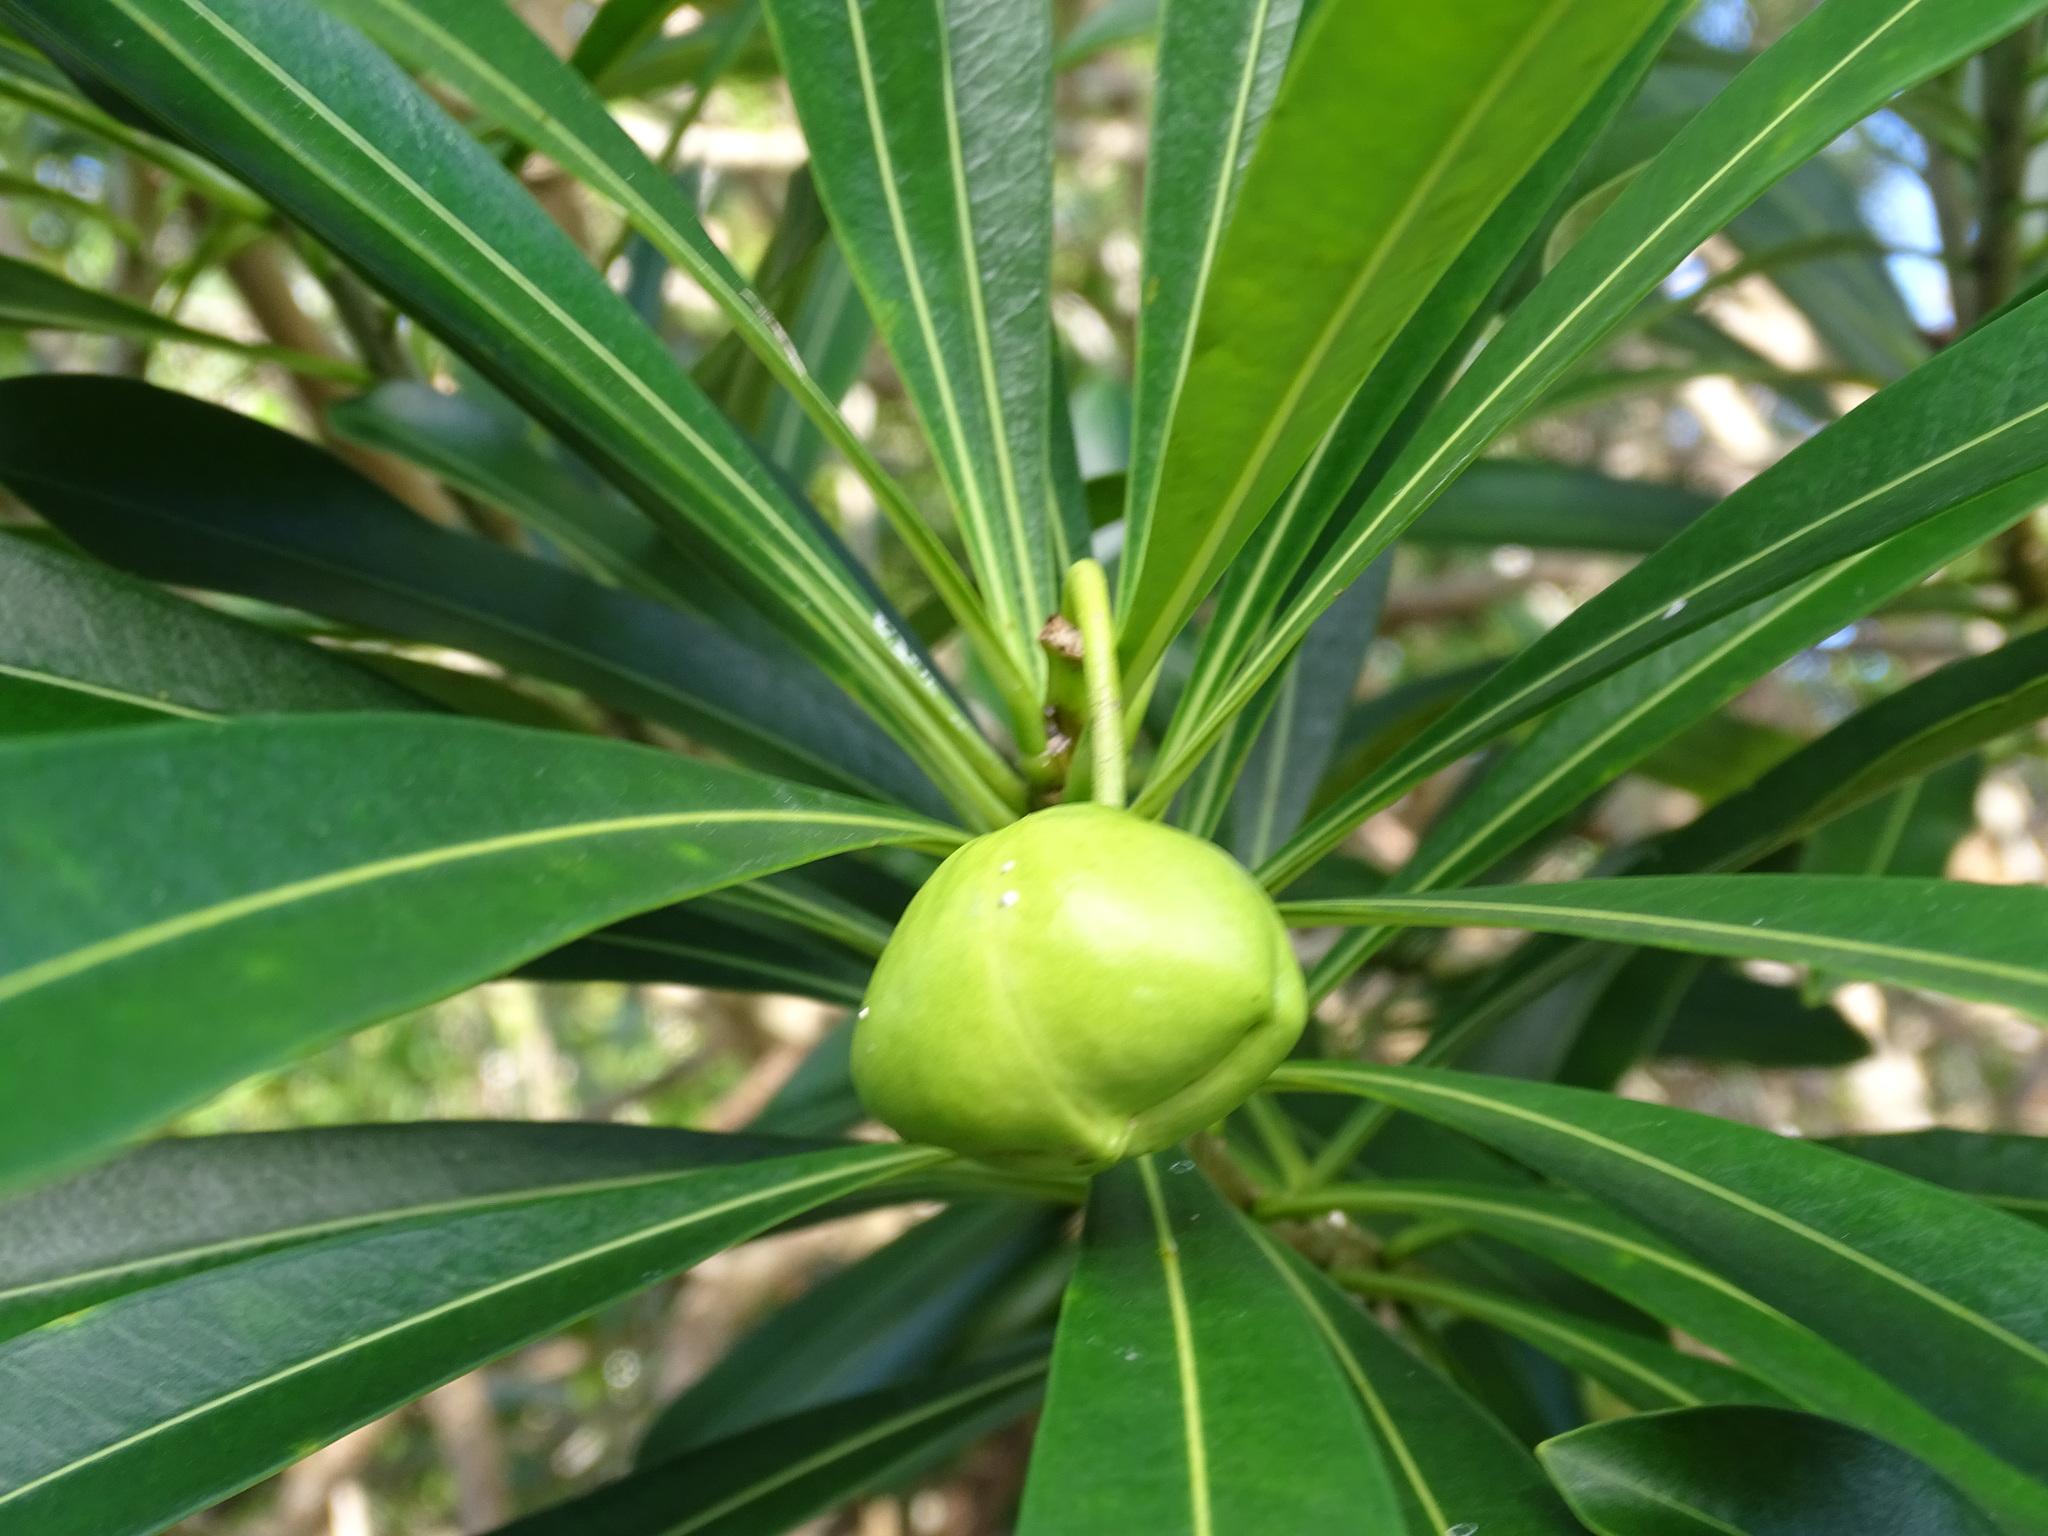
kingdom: Plantae
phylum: Tracheophyta
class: Magnoliopsida
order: Gentianales
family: Apocynaceae
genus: Cascabela
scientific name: Cascabela gaumeri
